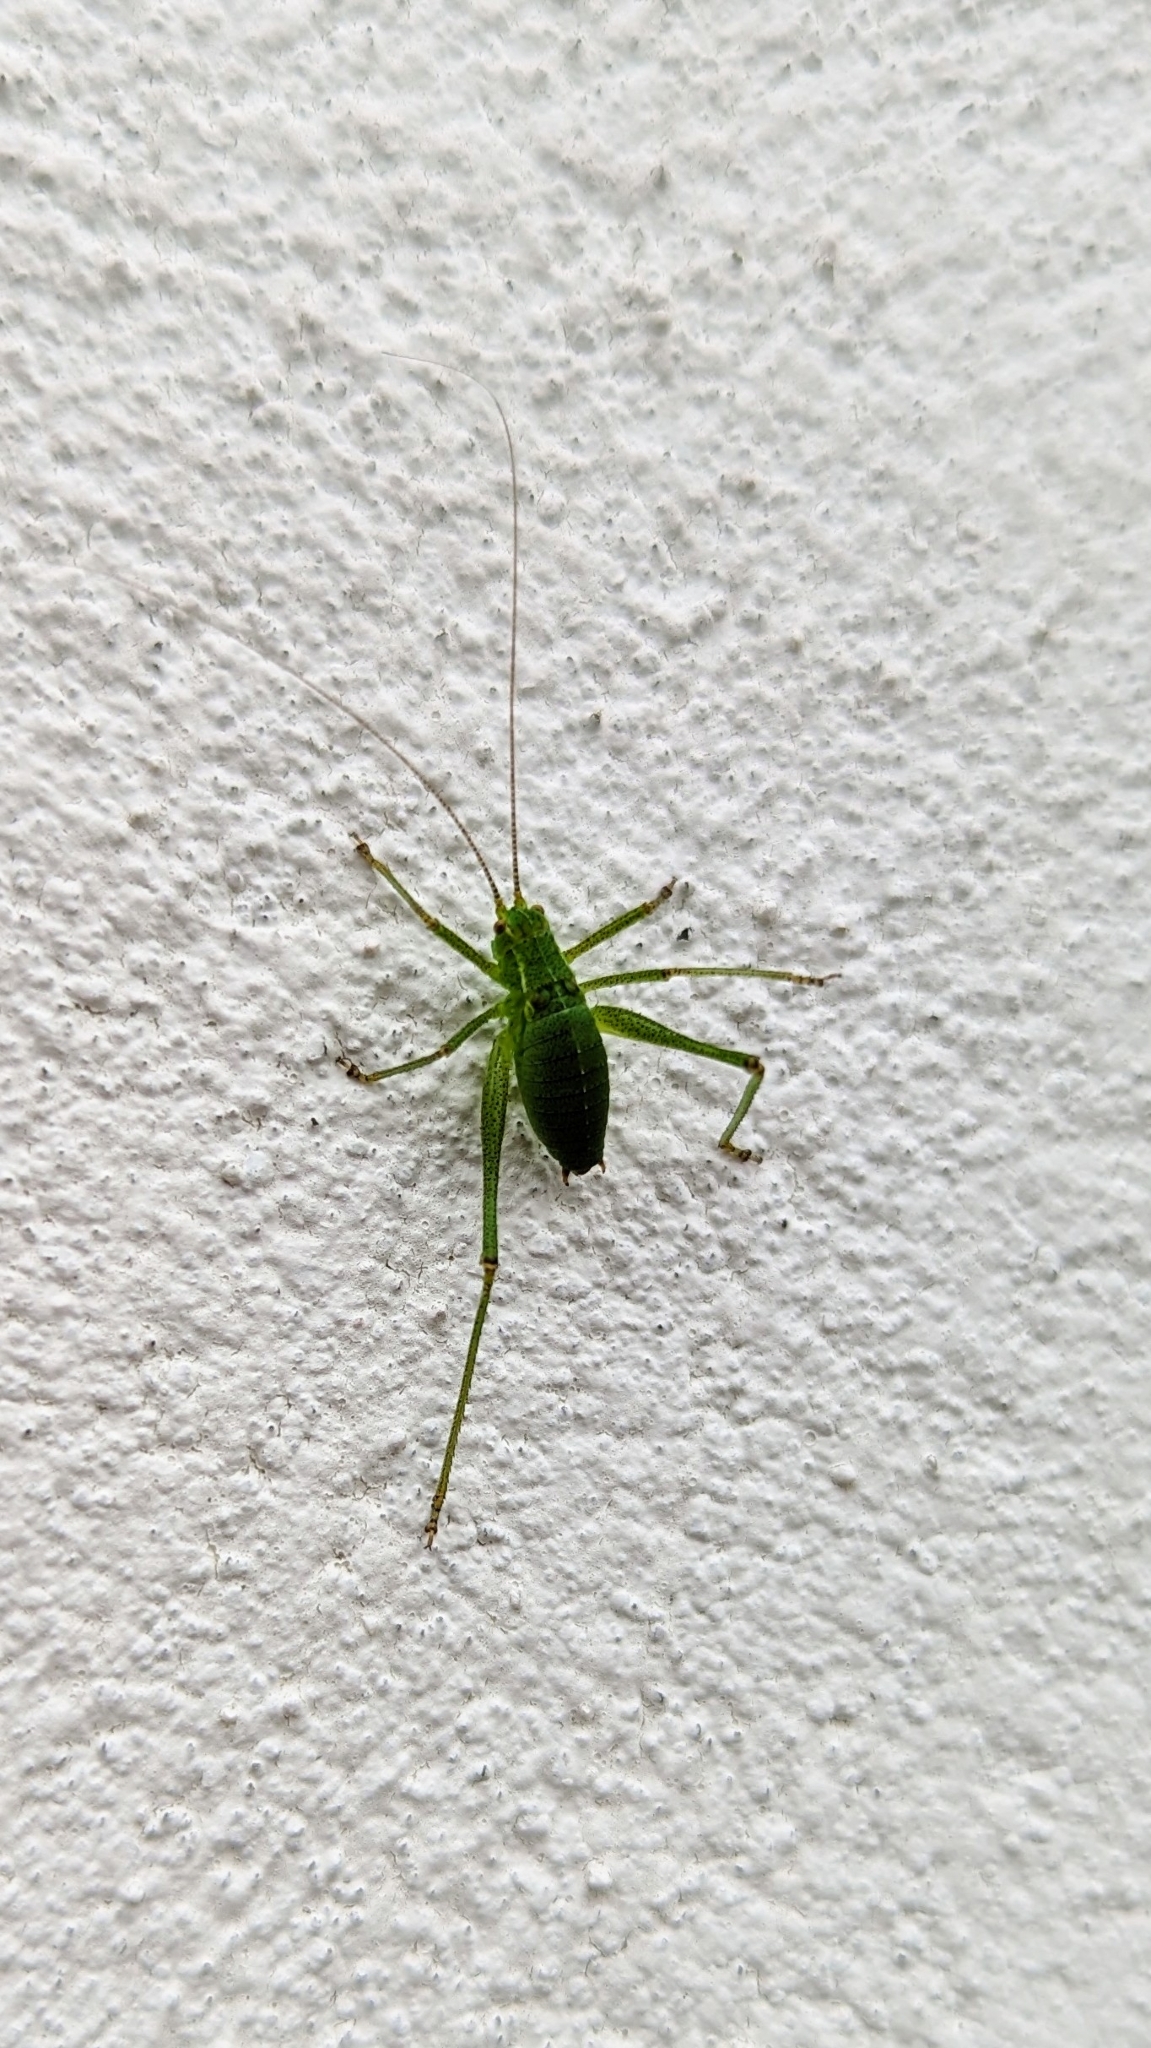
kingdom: Animalia
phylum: Arthropoda
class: Insecta
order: Orthoptera
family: Tettigoniidae
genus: Leptophyes
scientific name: Leptophyes punctatissima
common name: Speckled bush-cricket
